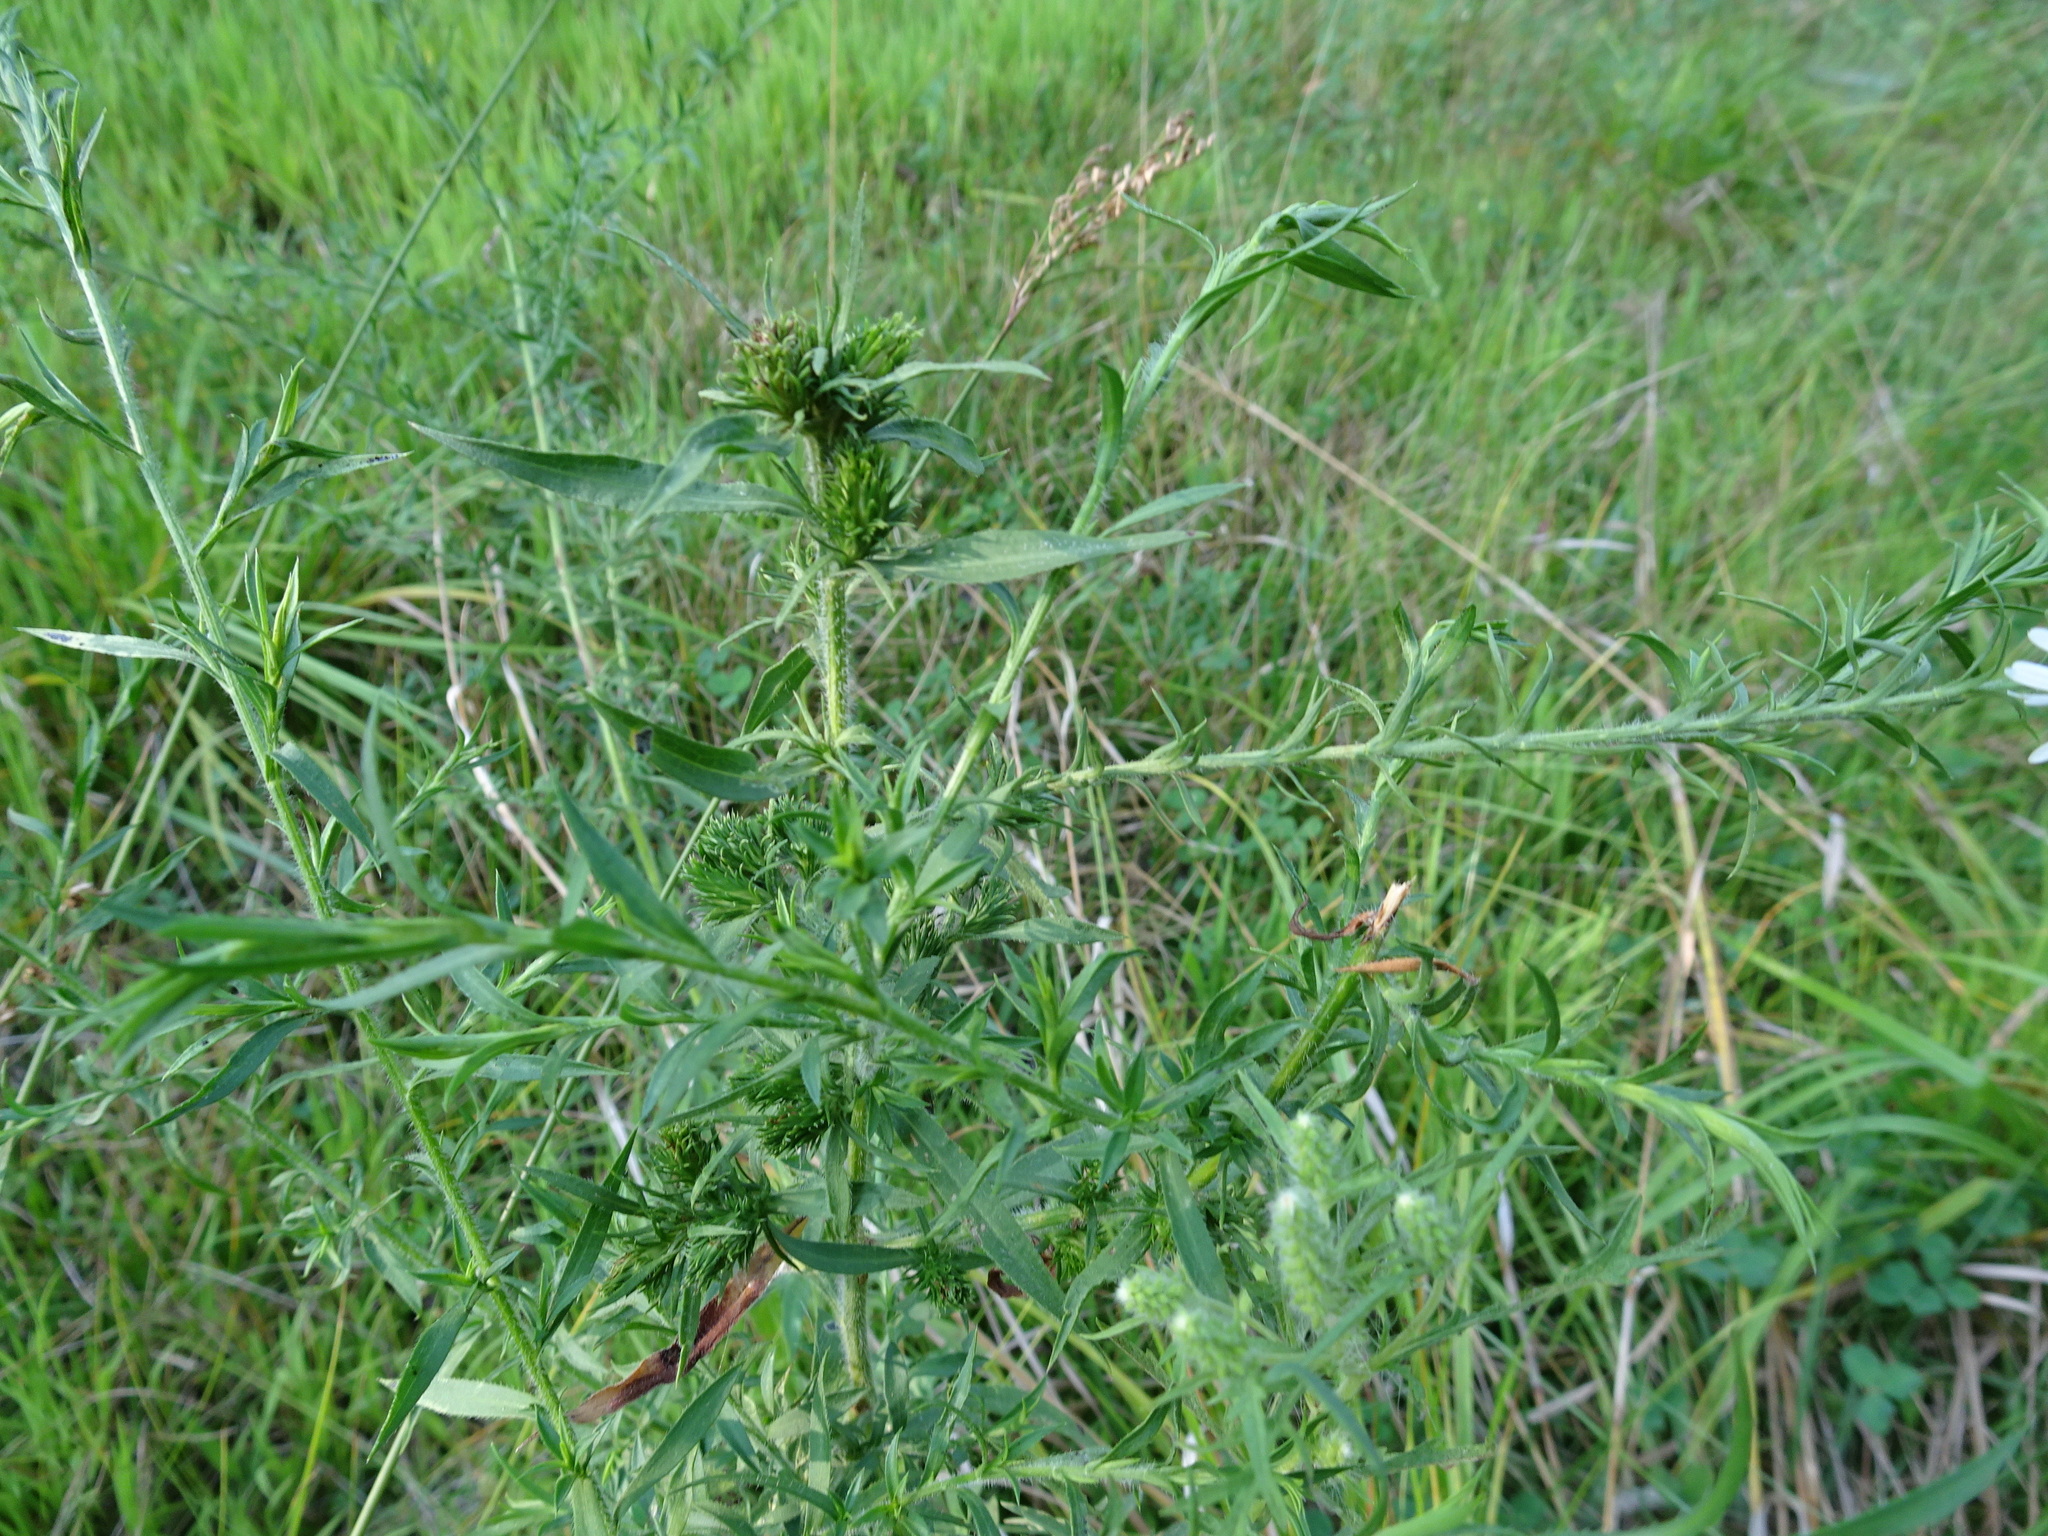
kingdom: Plantae
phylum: Tracheophyta
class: Magnoliopsida
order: Asterales
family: Asteraceae
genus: Symphyotrichum
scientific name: Symphyotrichum pilosum
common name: Awl aster
